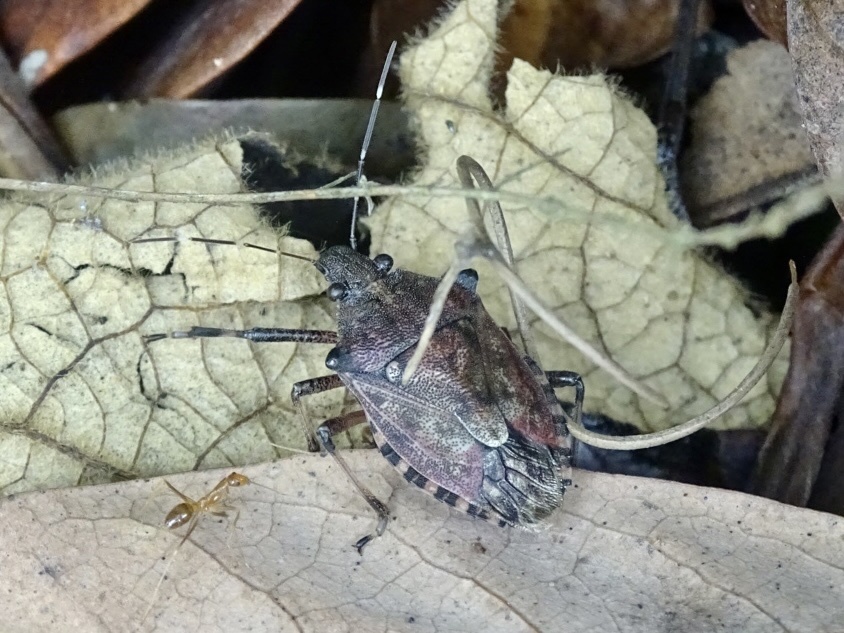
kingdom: Animalia
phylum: Arthropoda
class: Insecta
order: Hemiptera
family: Pentatomidae
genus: Dalpada
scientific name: Dalpada nodifera
